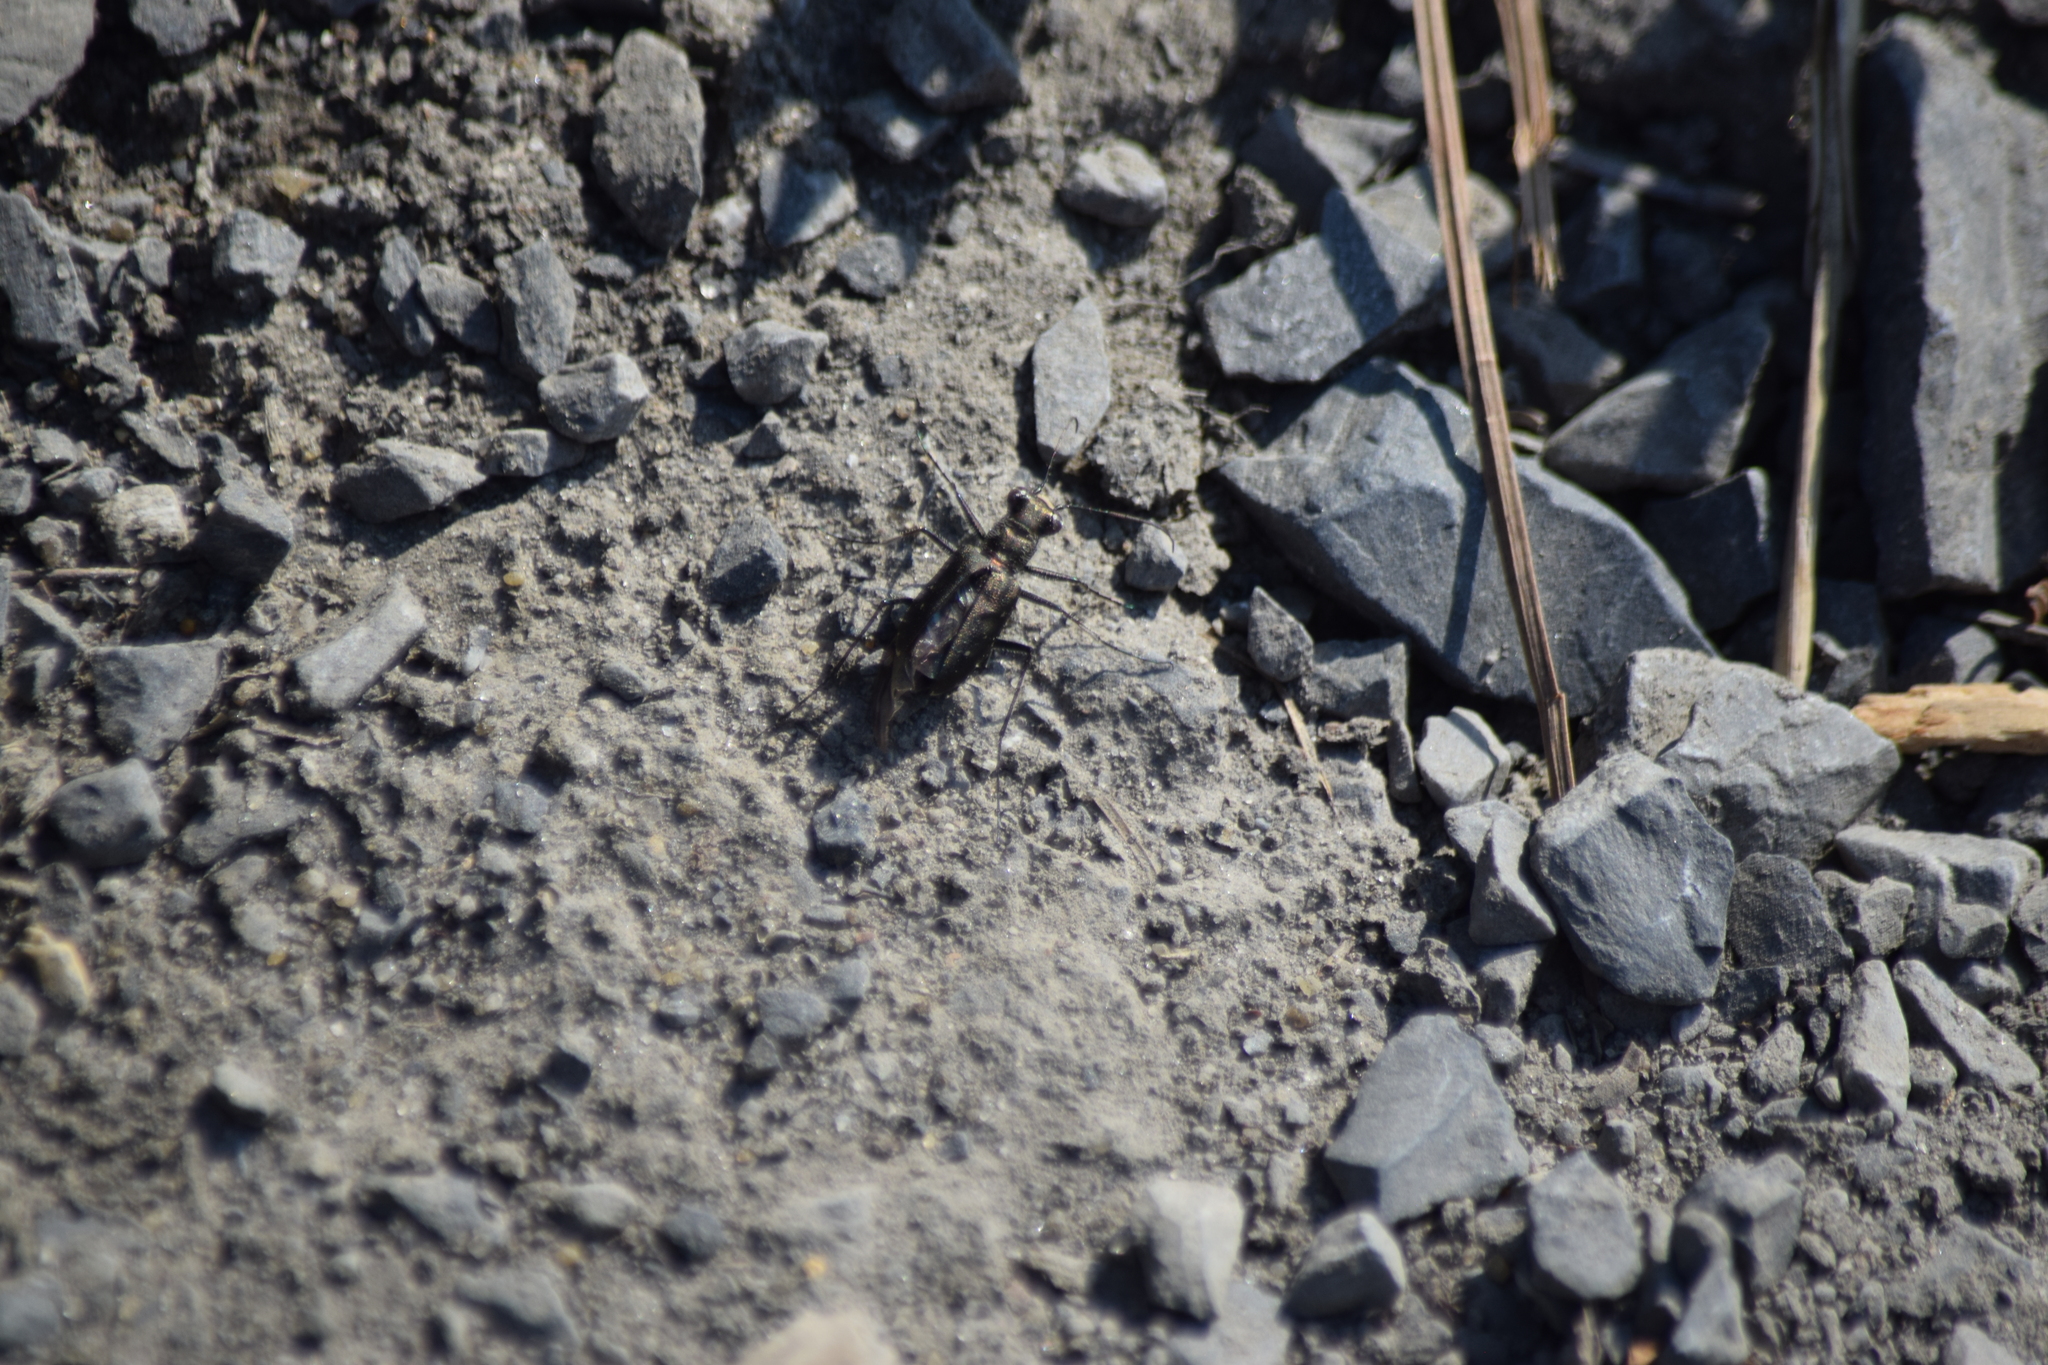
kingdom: Animalia
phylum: Arthropoda
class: Insecta
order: Coleoptera
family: Carabidae
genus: Cicindela
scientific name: Cicindela punctulata
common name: Punctured tiger beetle
